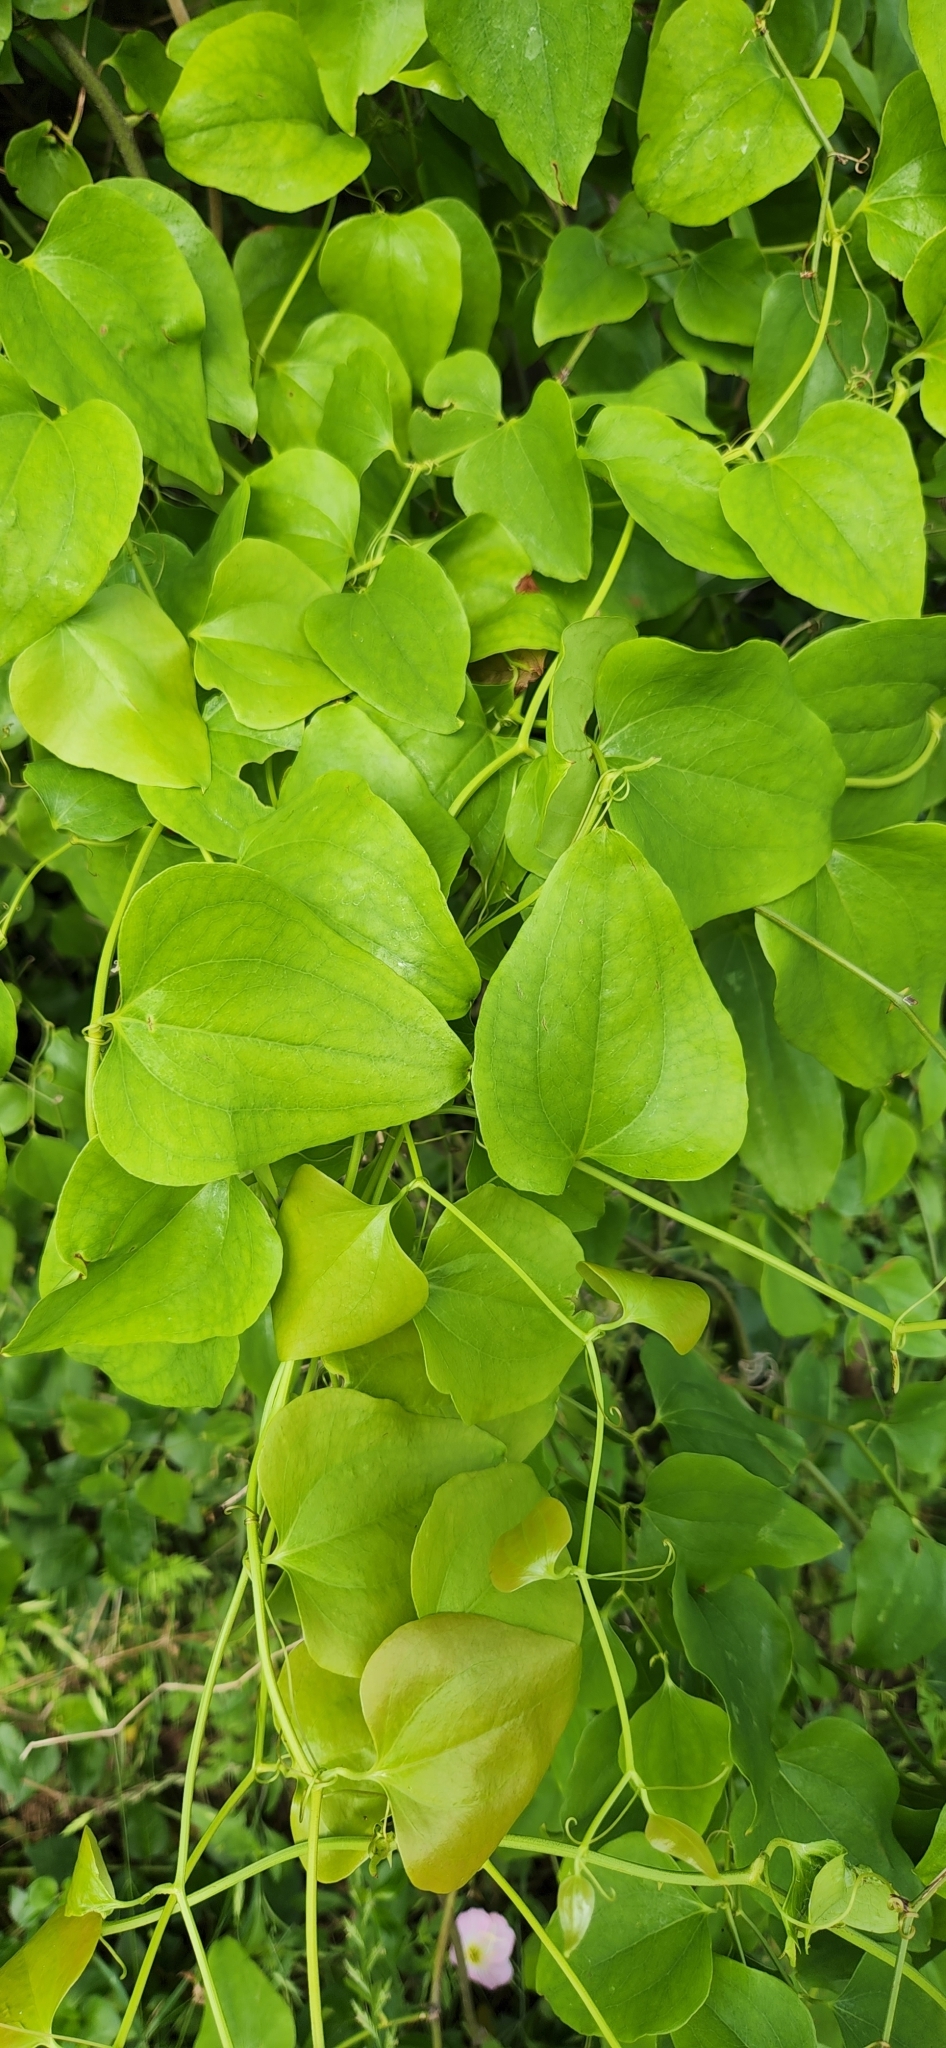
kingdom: Plantae
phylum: Tracheophyta
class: Liliopsida
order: Liliales
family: Smilacaceae
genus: Smilax
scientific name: Smilax bona-nox
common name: Catbrier
